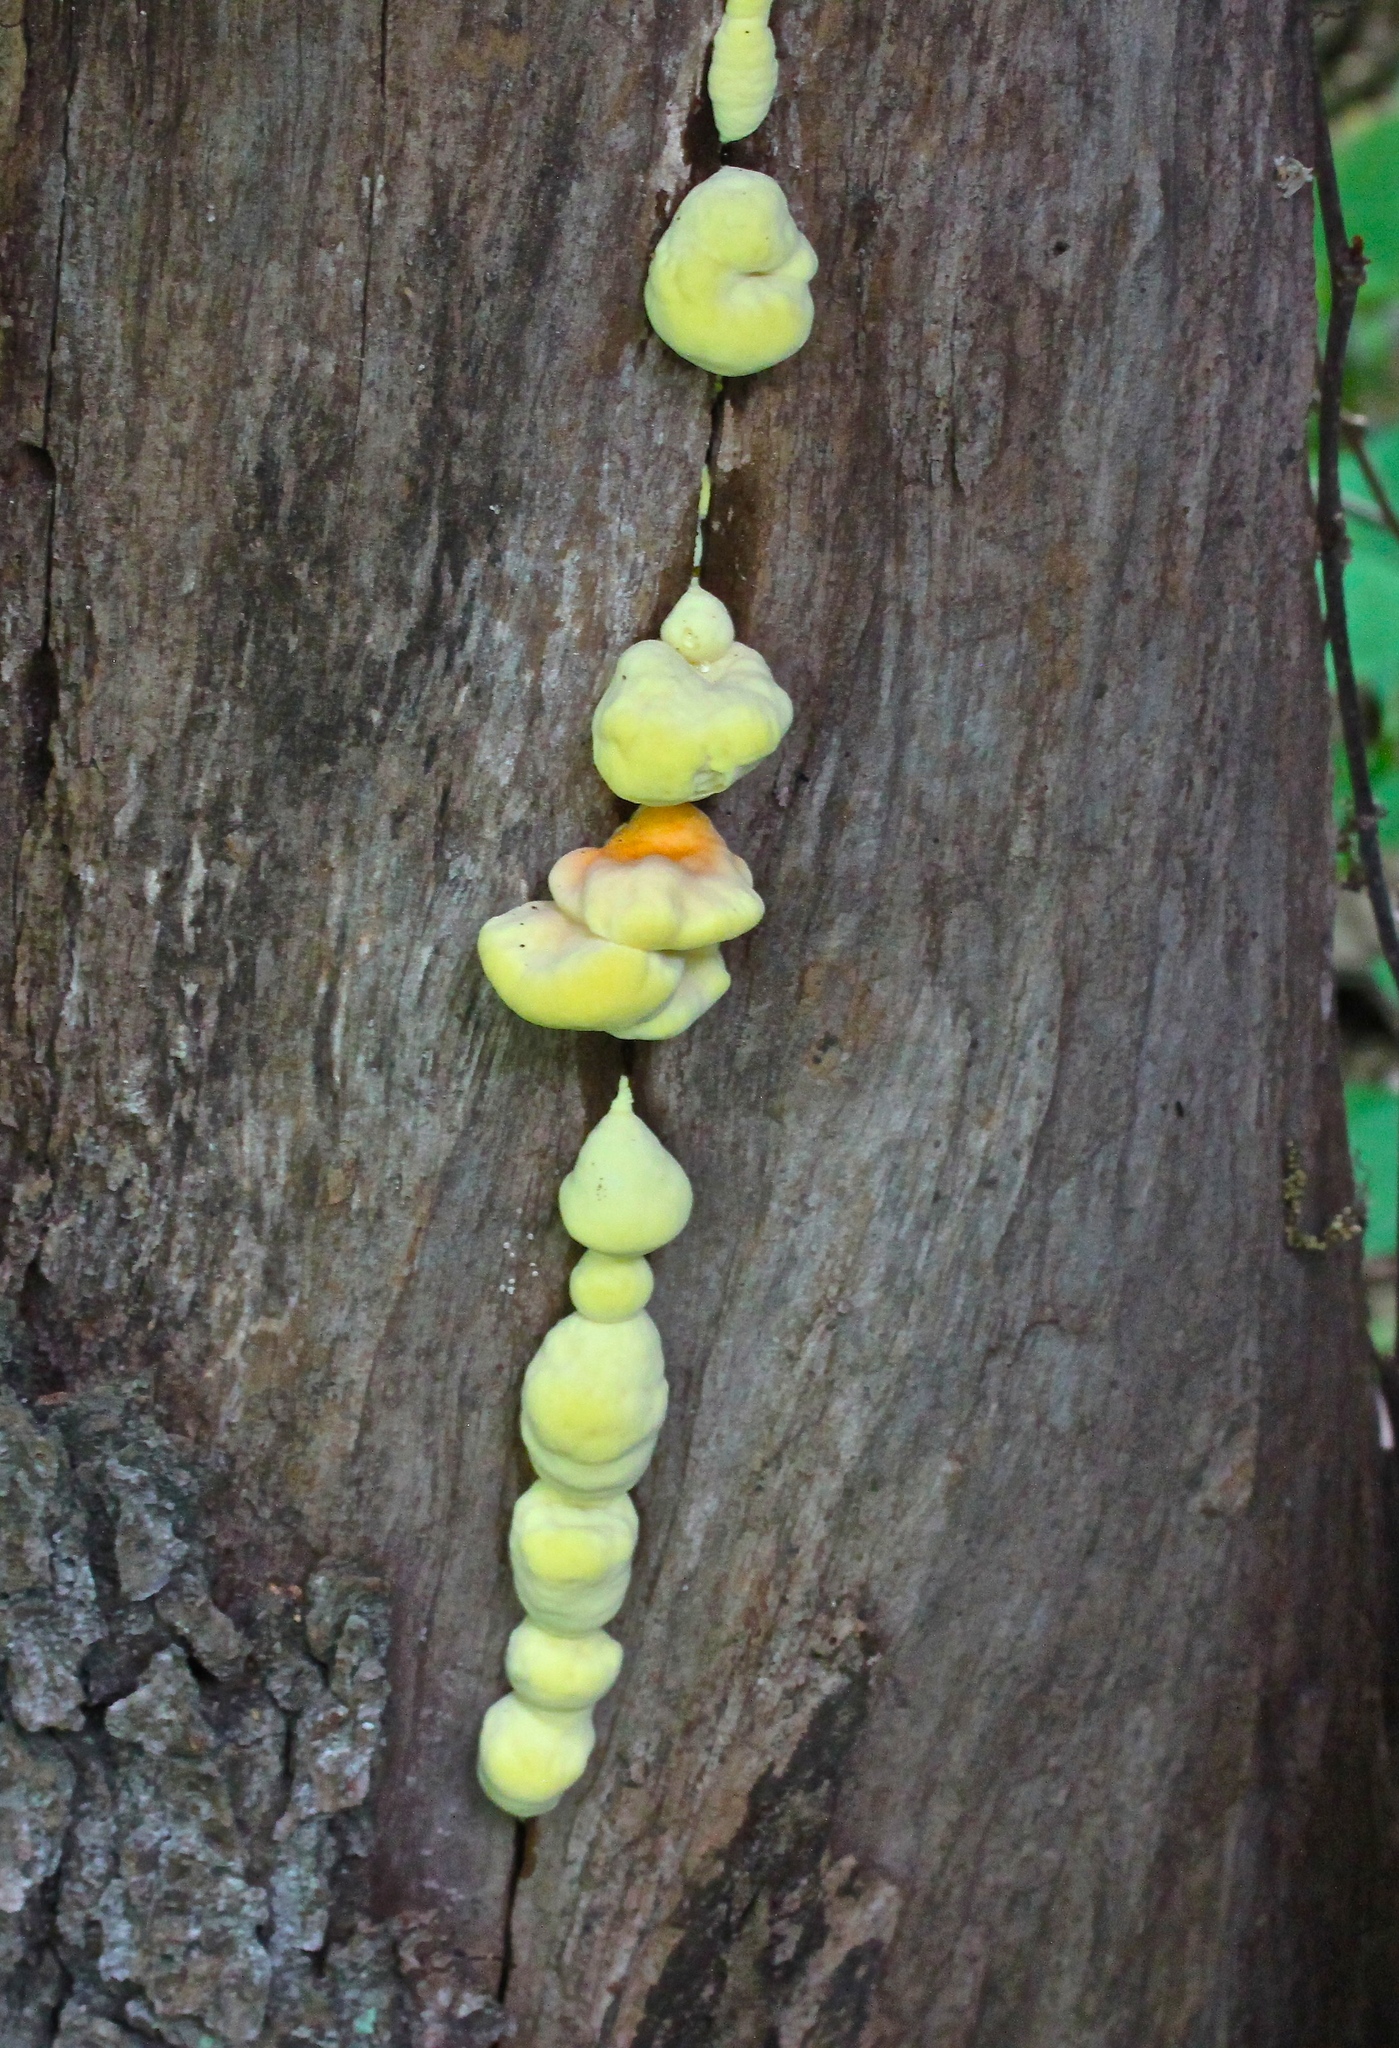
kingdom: Fungi
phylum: Basidiomycota
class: Agaricomycetes
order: Polyporales
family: Laetiporaceae
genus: Laetiporus
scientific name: Laetiporus sulphureus
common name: Chicken of the woods
